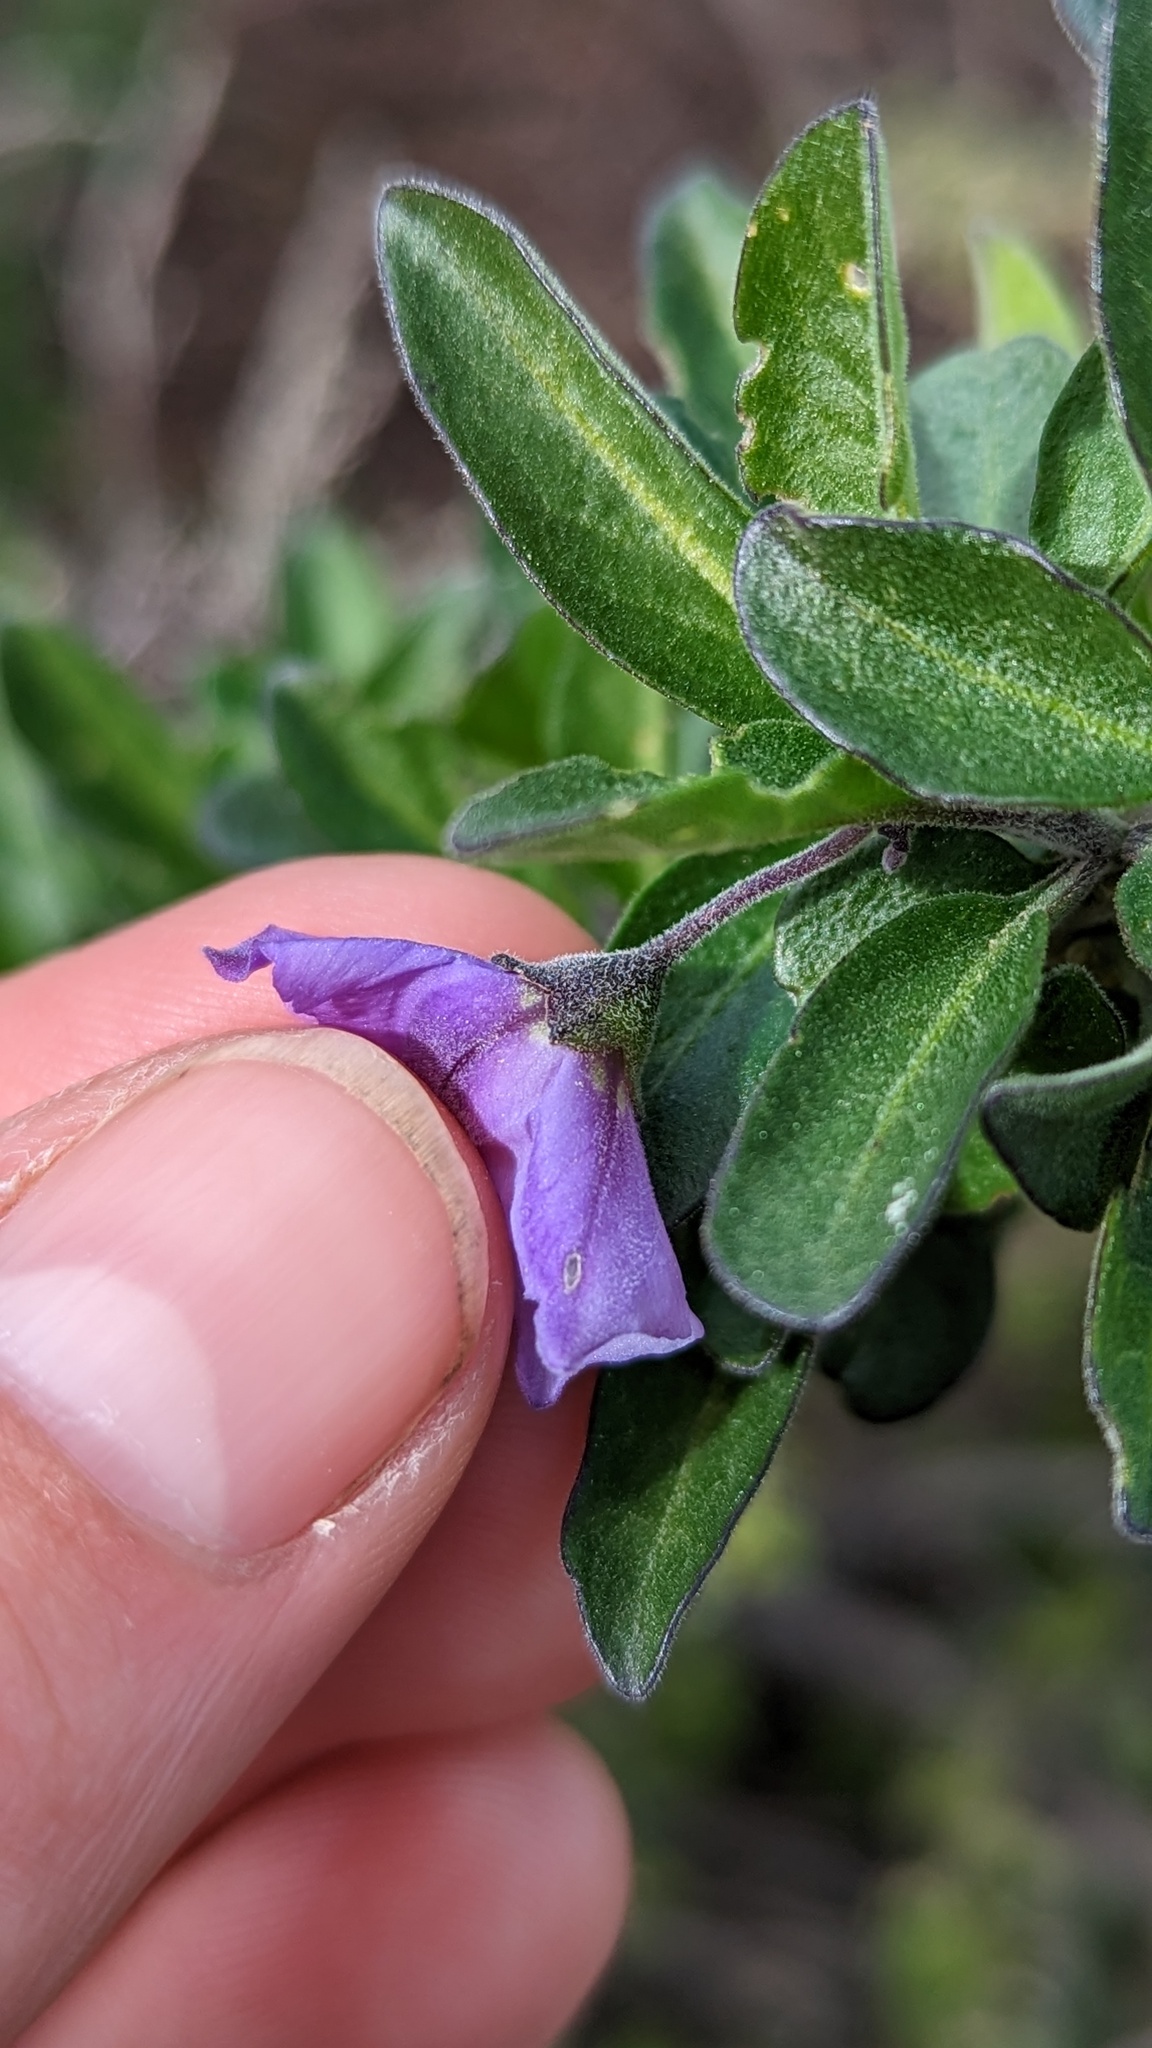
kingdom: Plantae
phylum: Tracheophyta
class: Magnoliopsida
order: Solanales
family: Solanaceae
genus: Solanum
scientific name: Solanum umbelliferum
